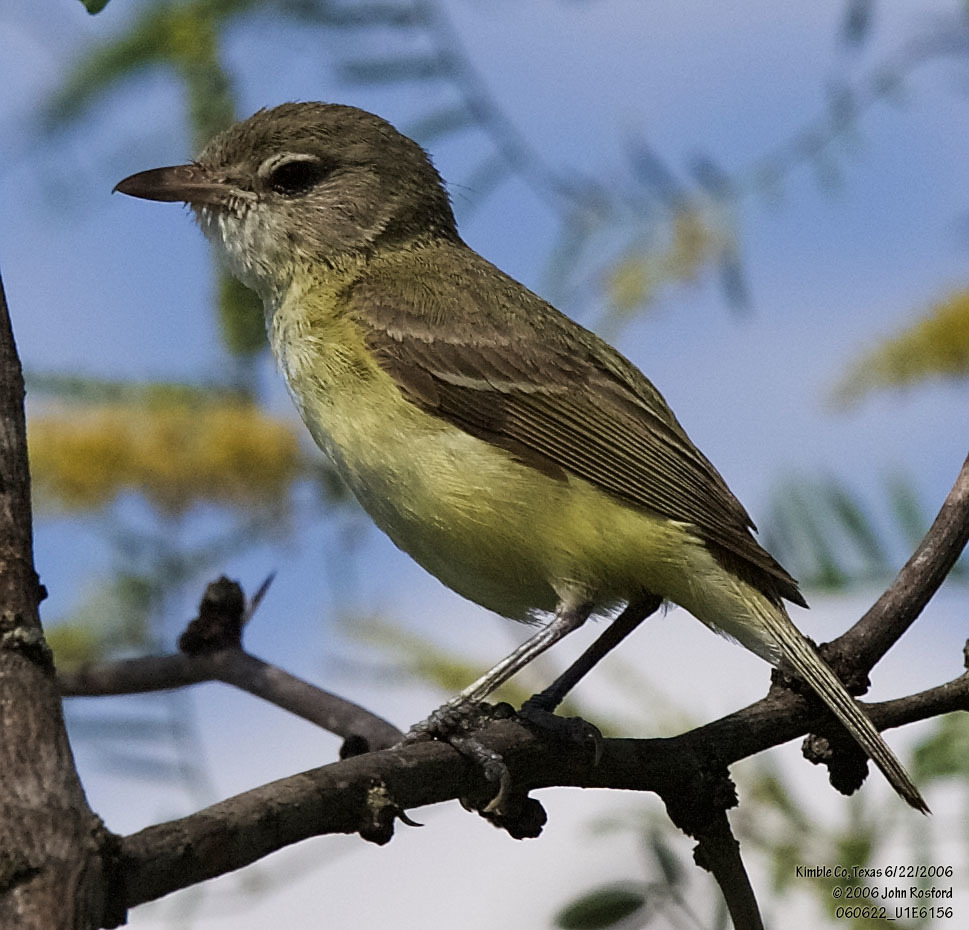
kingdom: Animalia
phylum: Chordata
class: Aves
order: Passeriformes
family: Vireonidae
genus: Vireo
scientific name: Vireo bellii
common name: Bell's vireo
